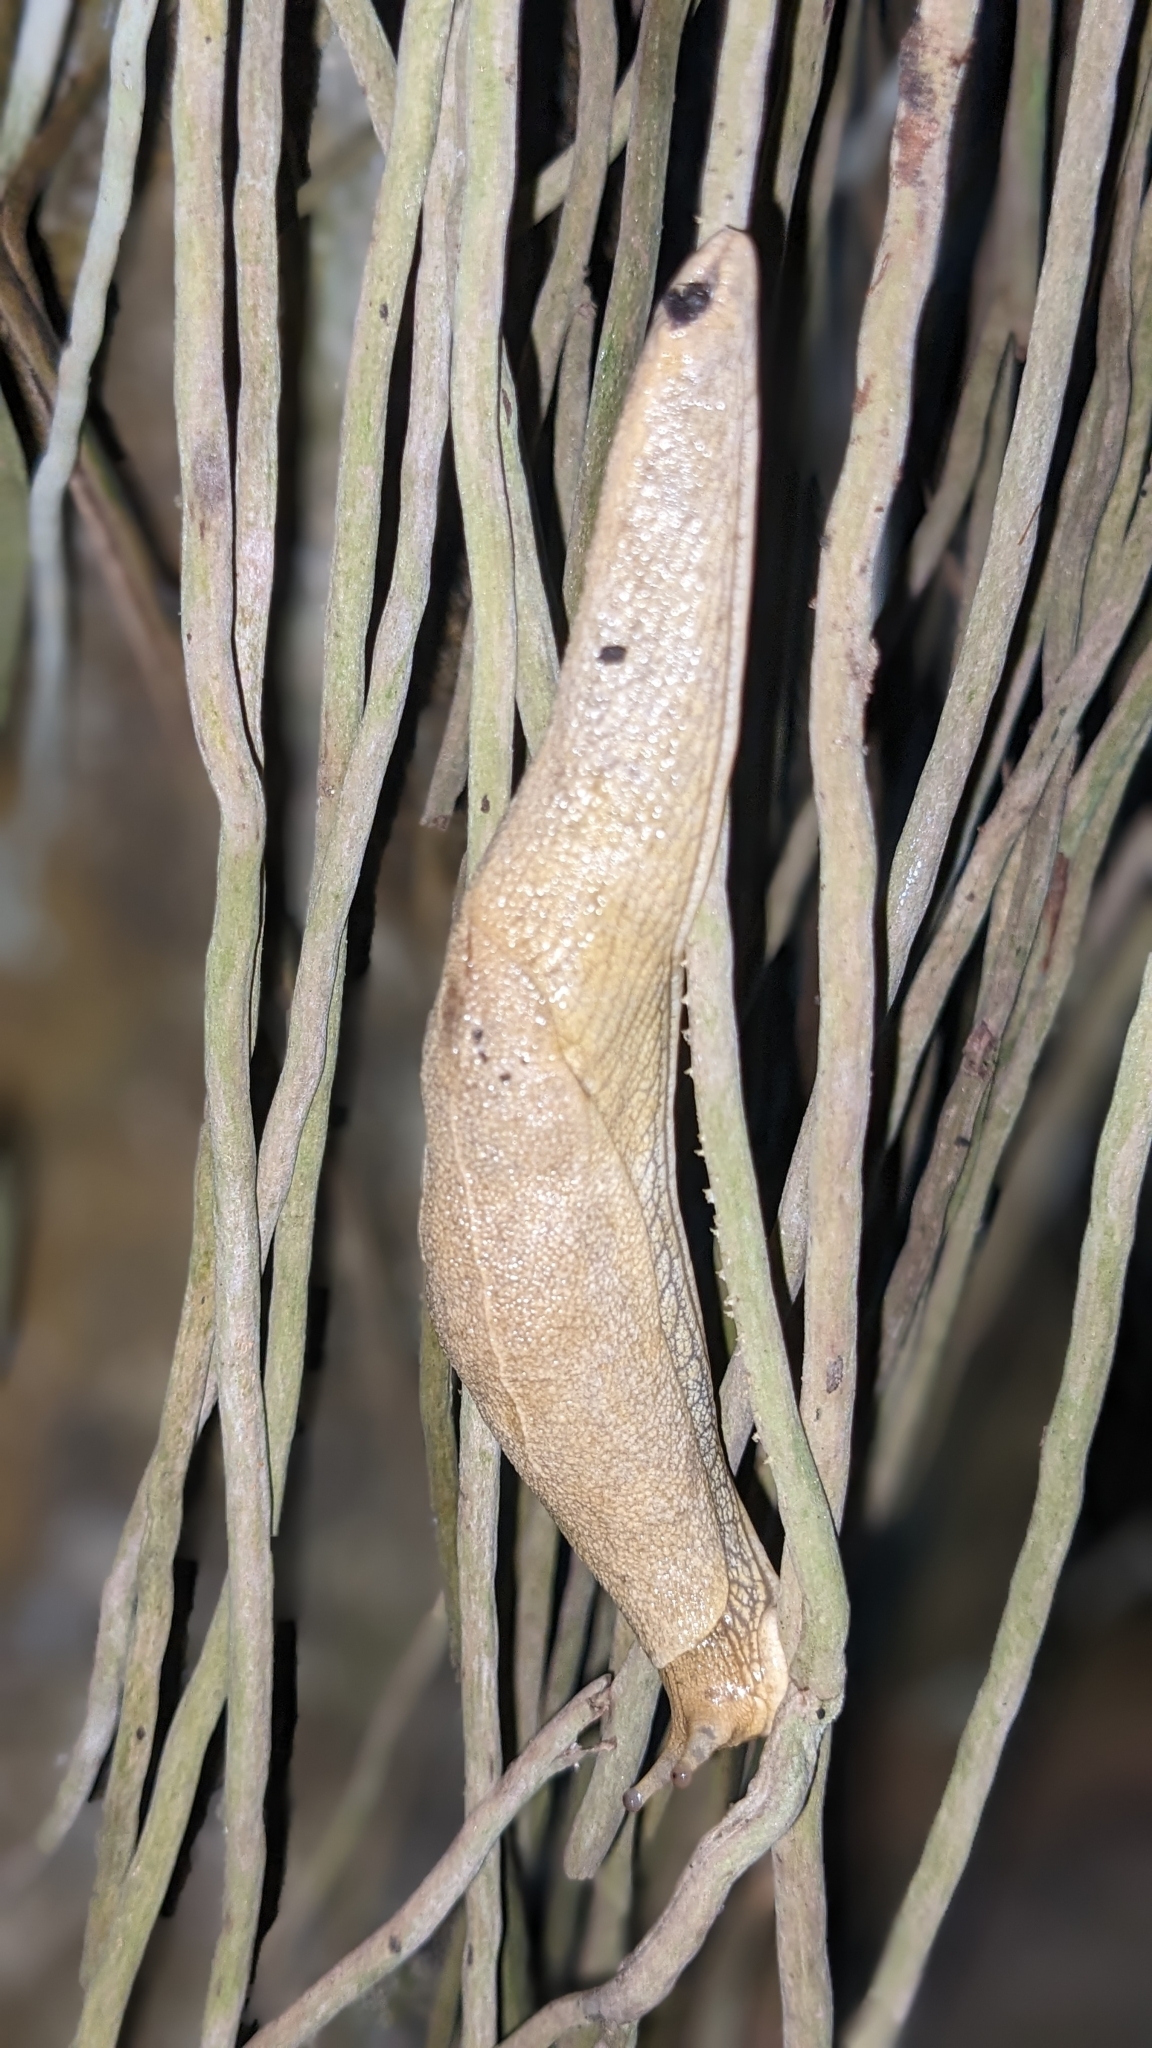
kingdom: Animalia
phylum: Mollusca
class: Gastropoda
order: Stylommatophora
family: Ariophantidae
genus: Mariaella
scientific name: Mariaella dussumieri
